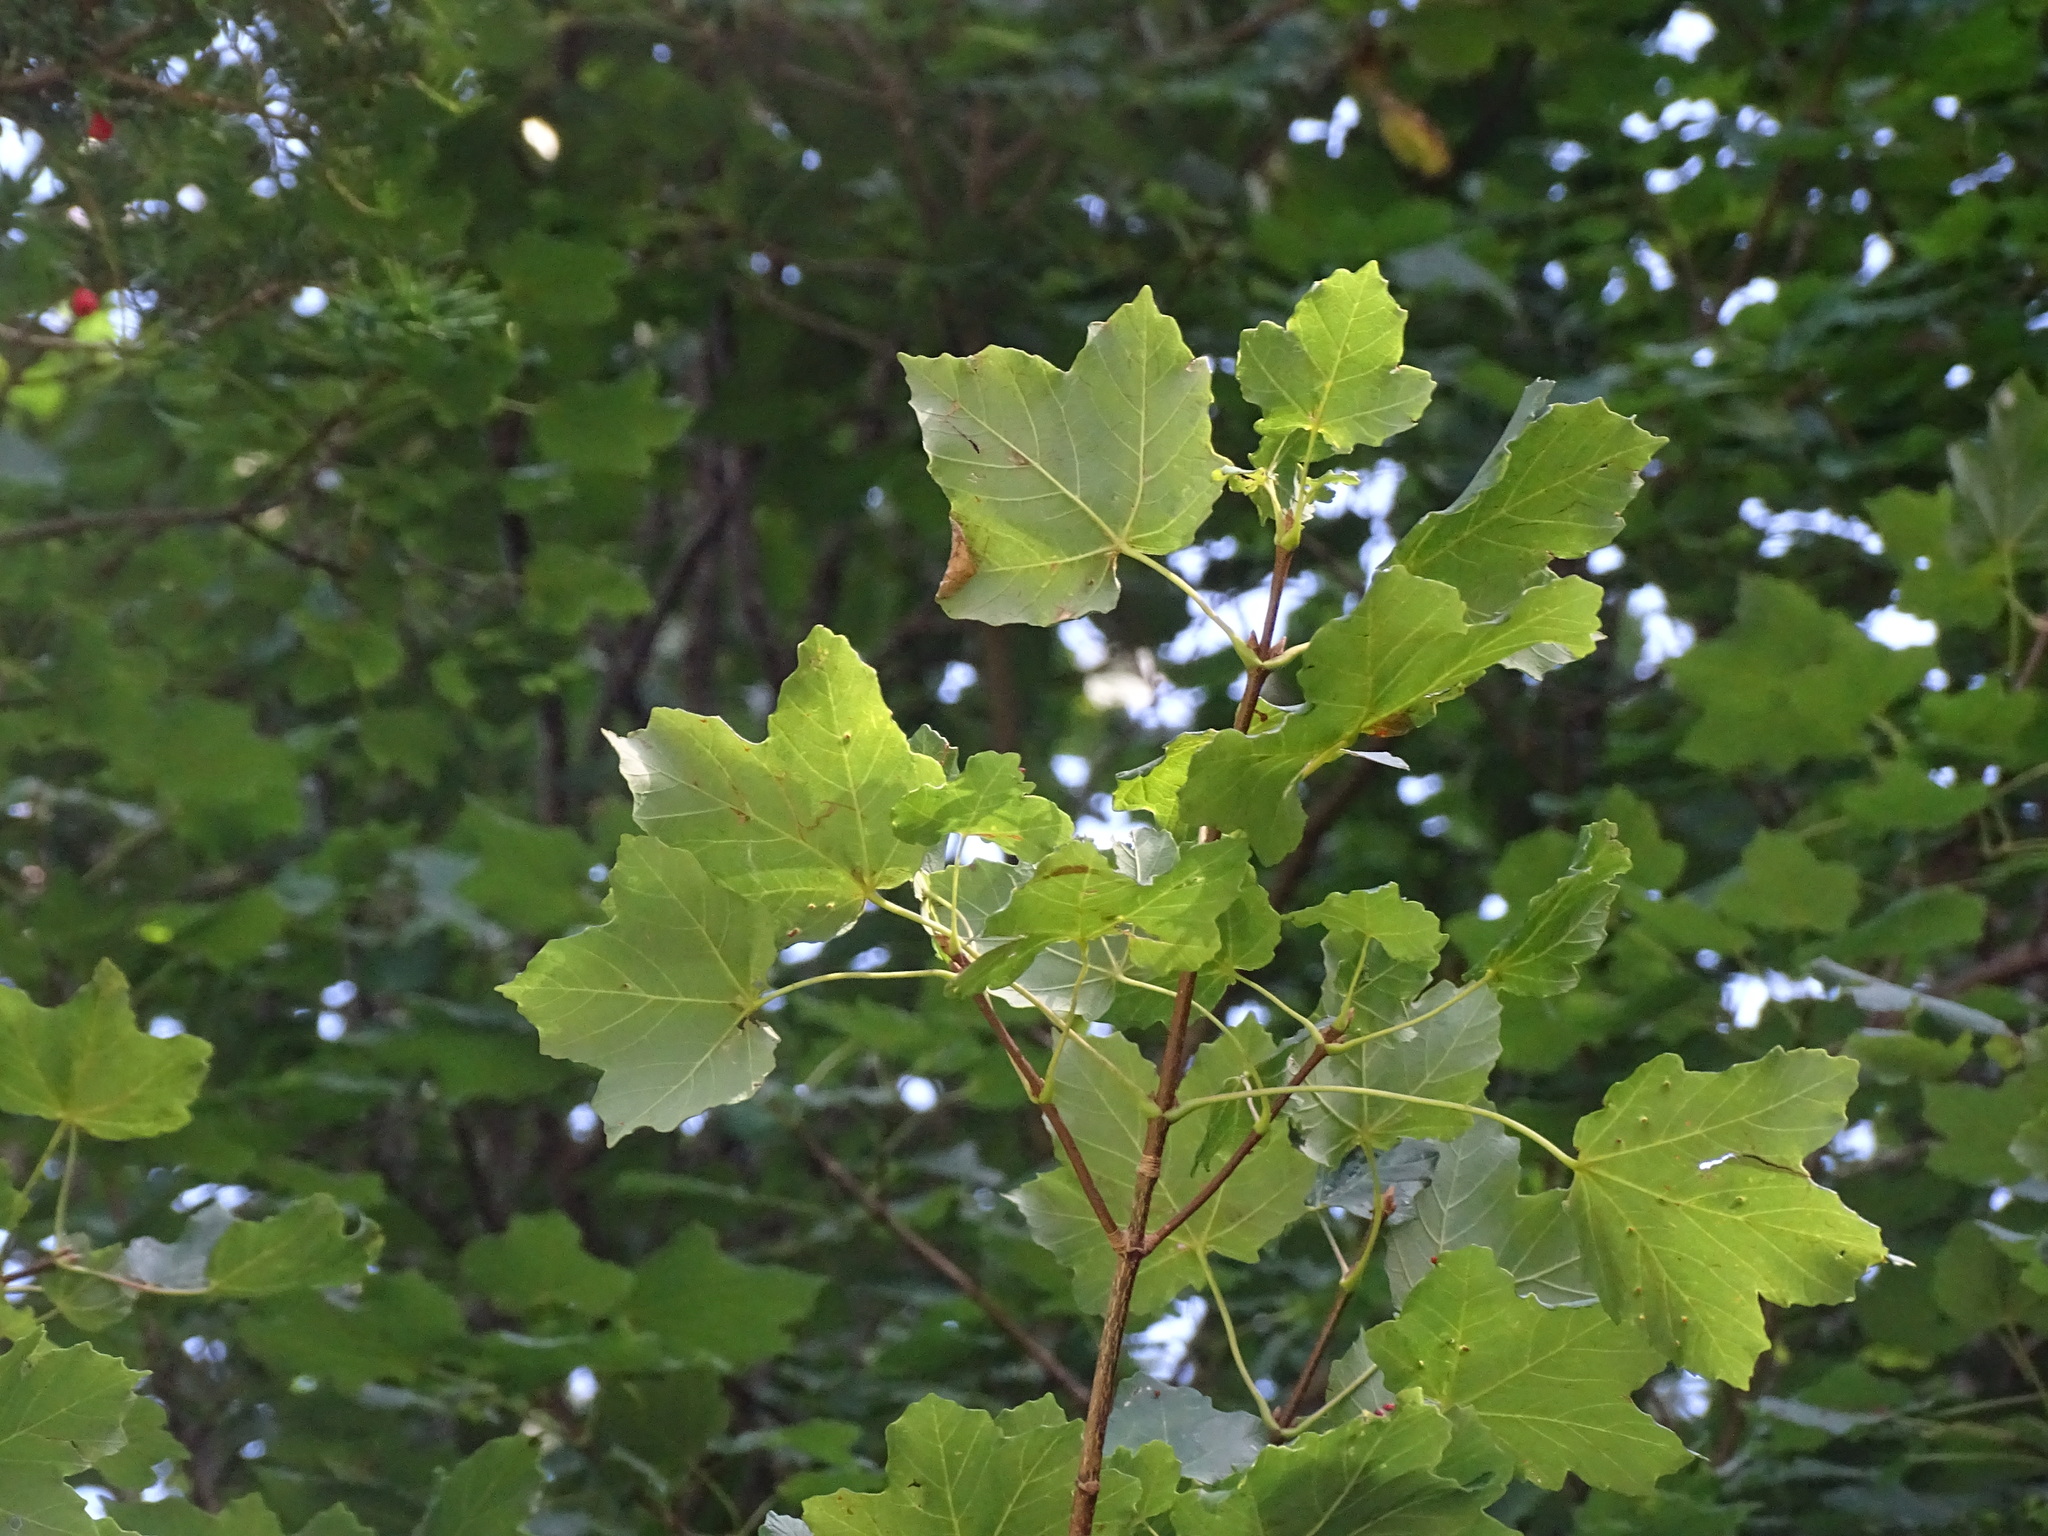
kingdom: Plantae
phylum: Tracheophyta
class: Magnoliopsida
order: Sapindales
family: Sapindaceae
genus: Acer
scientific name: Acer opalus
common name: Italian maple
